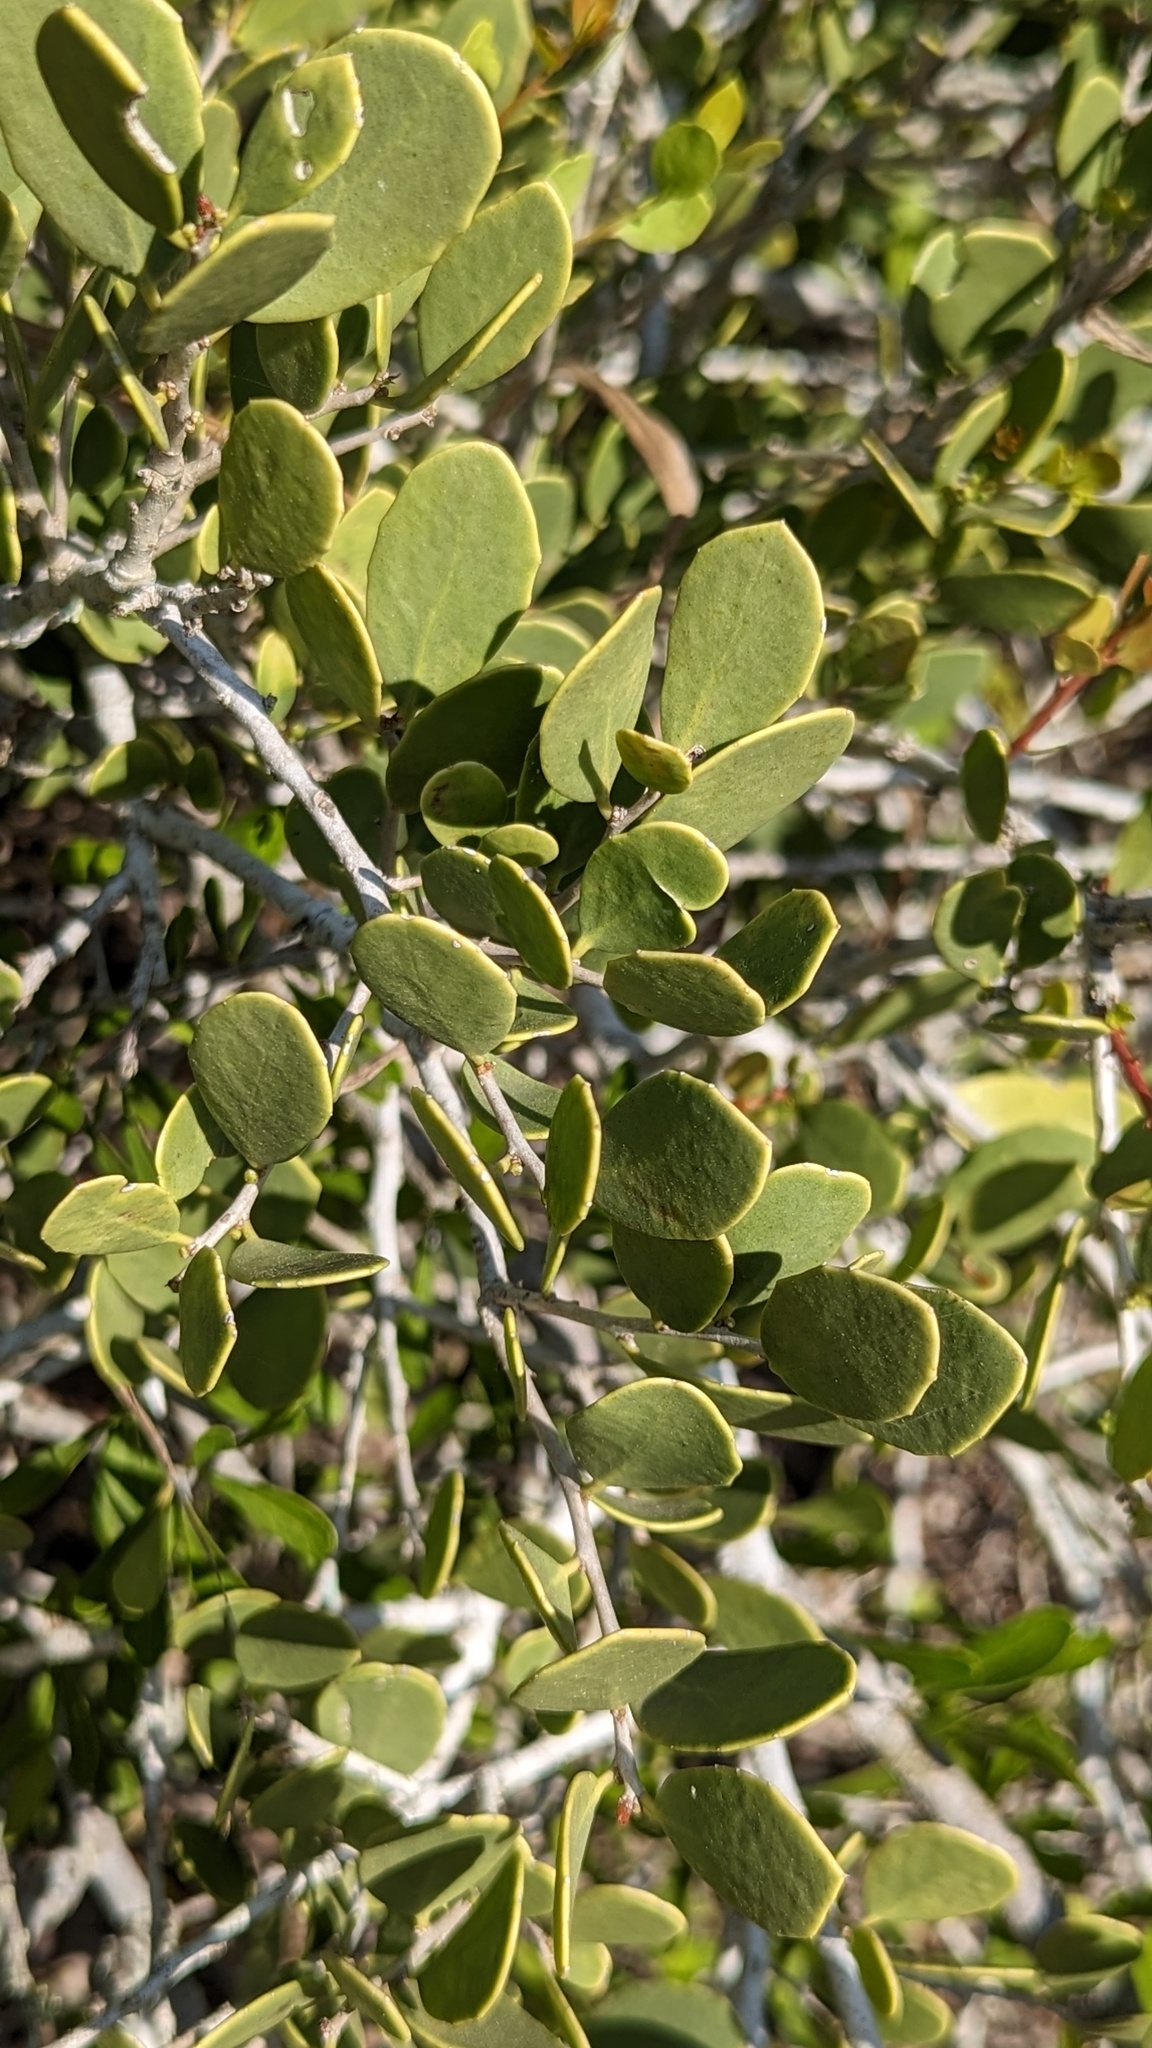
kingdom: Plantae
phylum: Tracheophyta
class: Magnoliopsida
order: Celastrales
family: Celastraceae
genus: Tricerma
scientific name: Tricerma phyllanthoides
